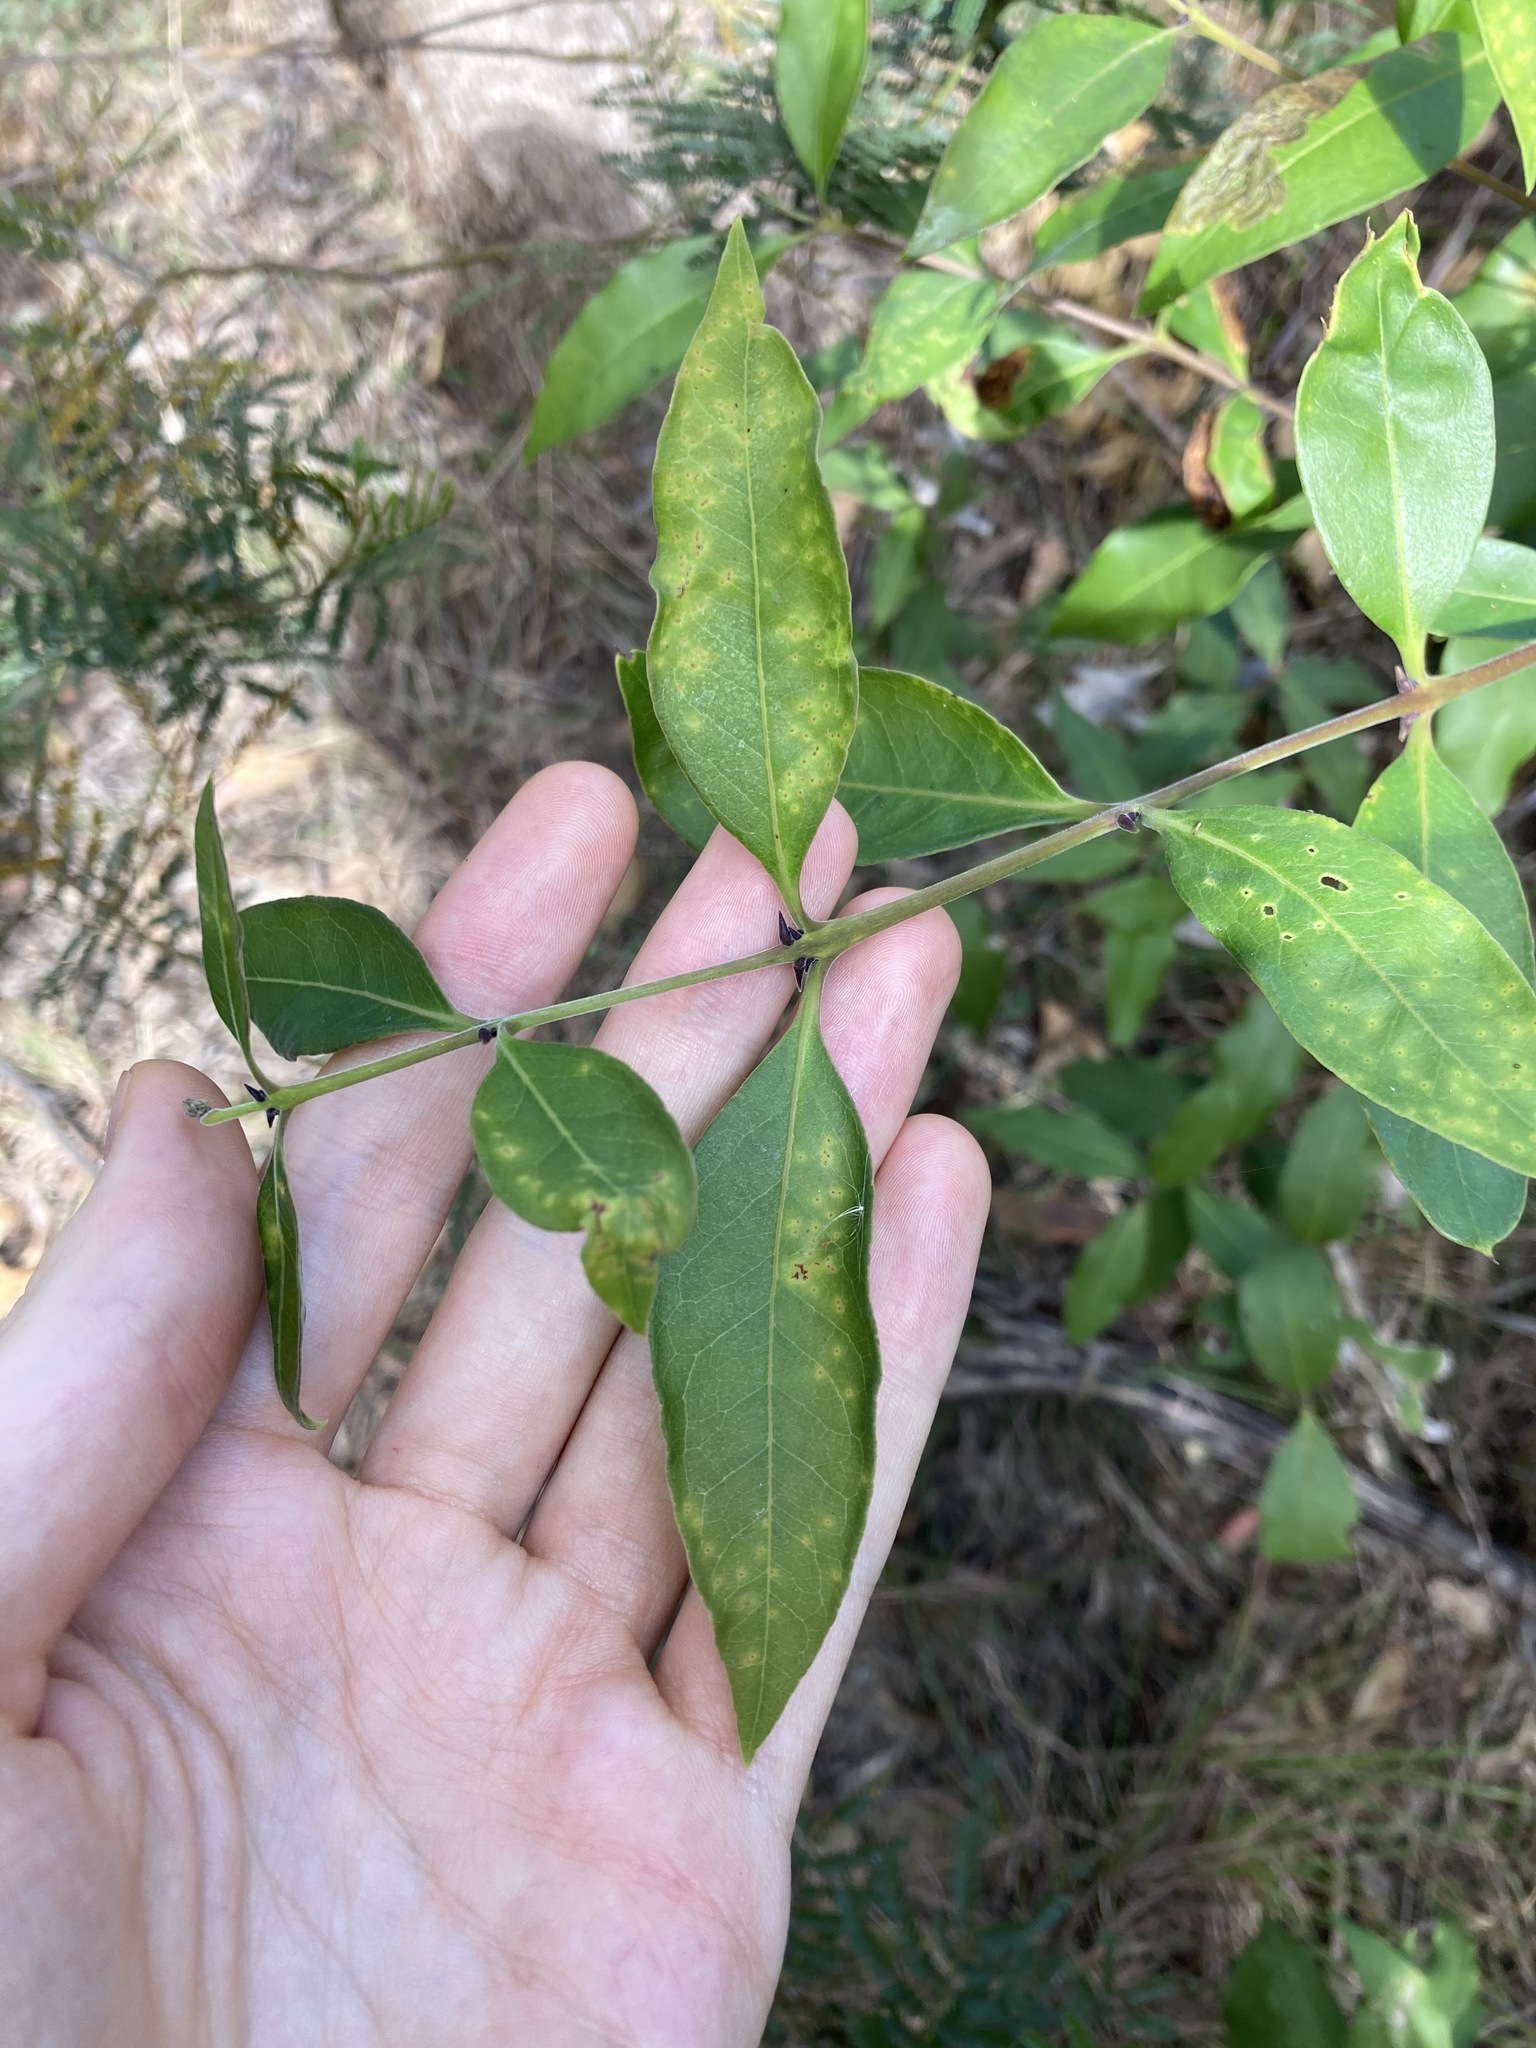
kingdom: Plantae
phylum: Tracheophyta
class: Magnoliopsida
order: Lamiales
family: Oleaceae
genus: Notelaea
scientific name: Notelaea longifolia
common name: Large mock olive
